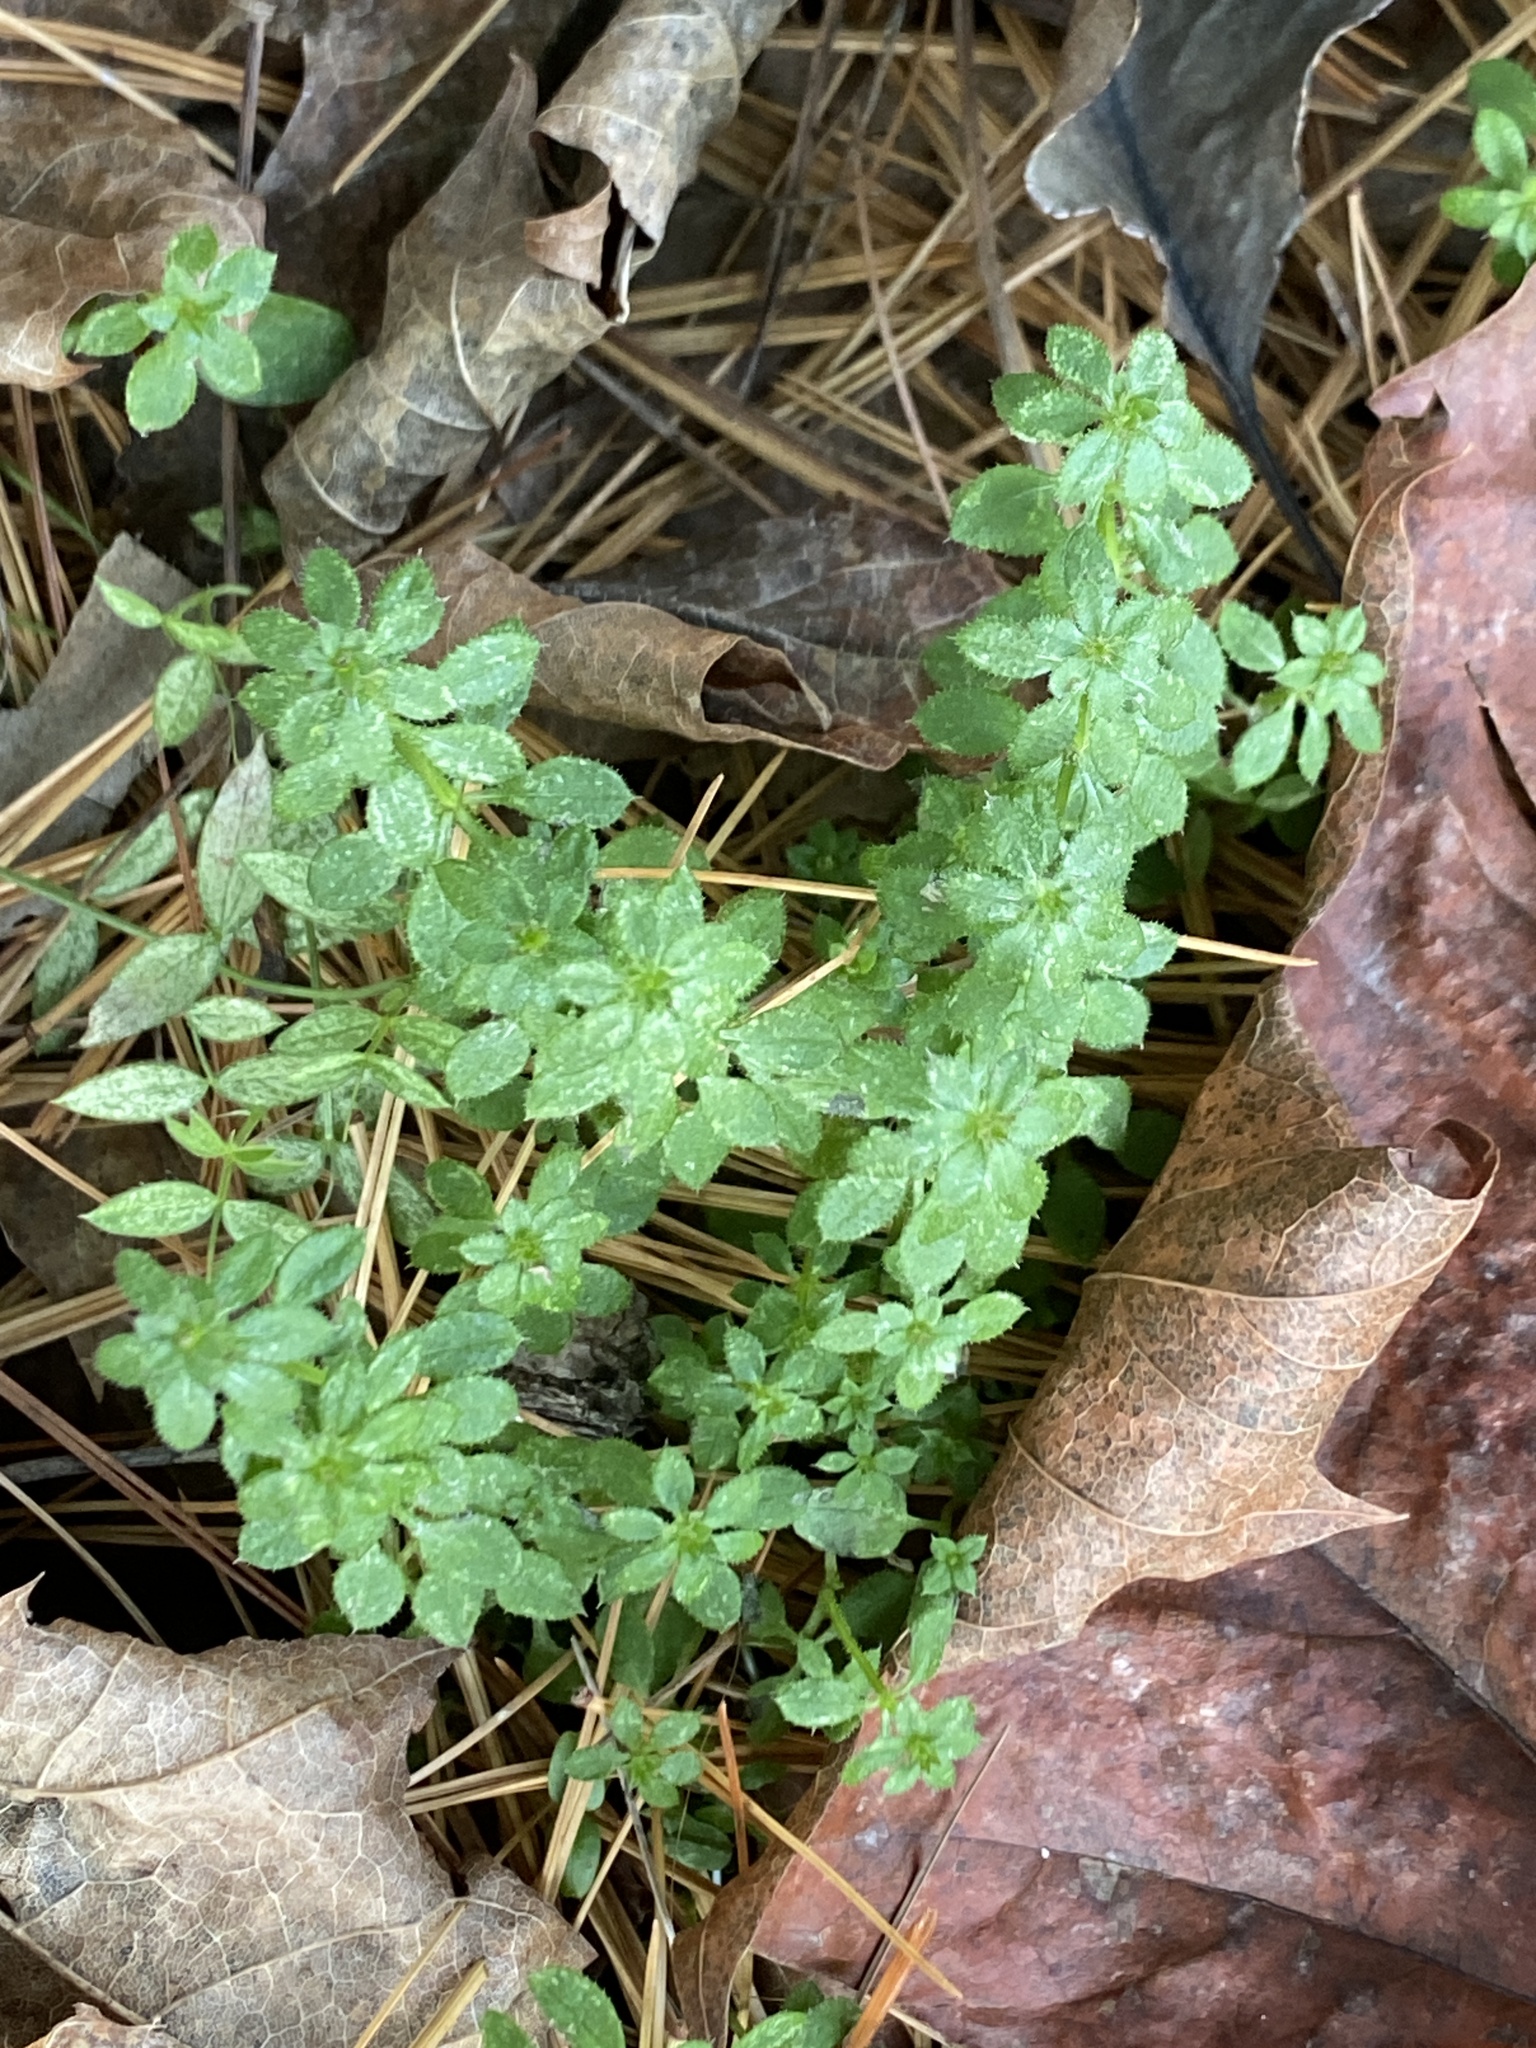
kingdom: Plantae
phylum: Tracheophyta
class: Magnoliopsida
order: Gentianales
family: Rubiaceae
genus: Galium
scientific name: Galium aparine
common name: Cleavers
